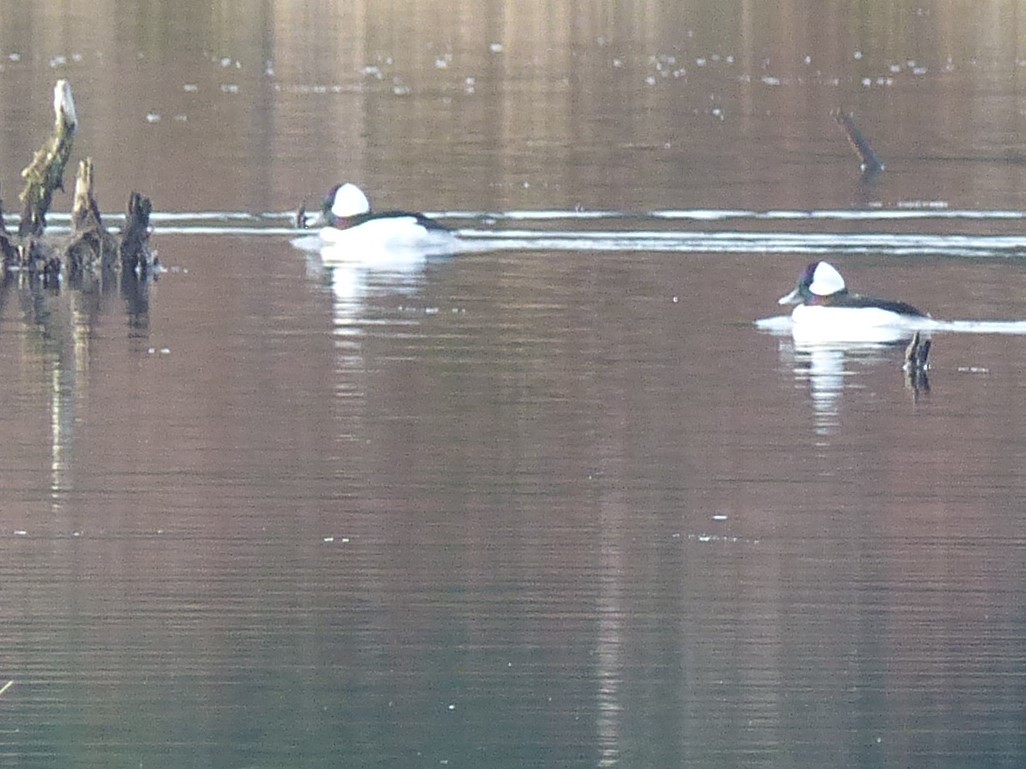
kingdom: Animalia
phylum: Chordata
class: Aves
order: Anseriformes
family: Anatidae
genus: Bucephala
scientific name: Bucephala albeola
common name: Bufflehead
